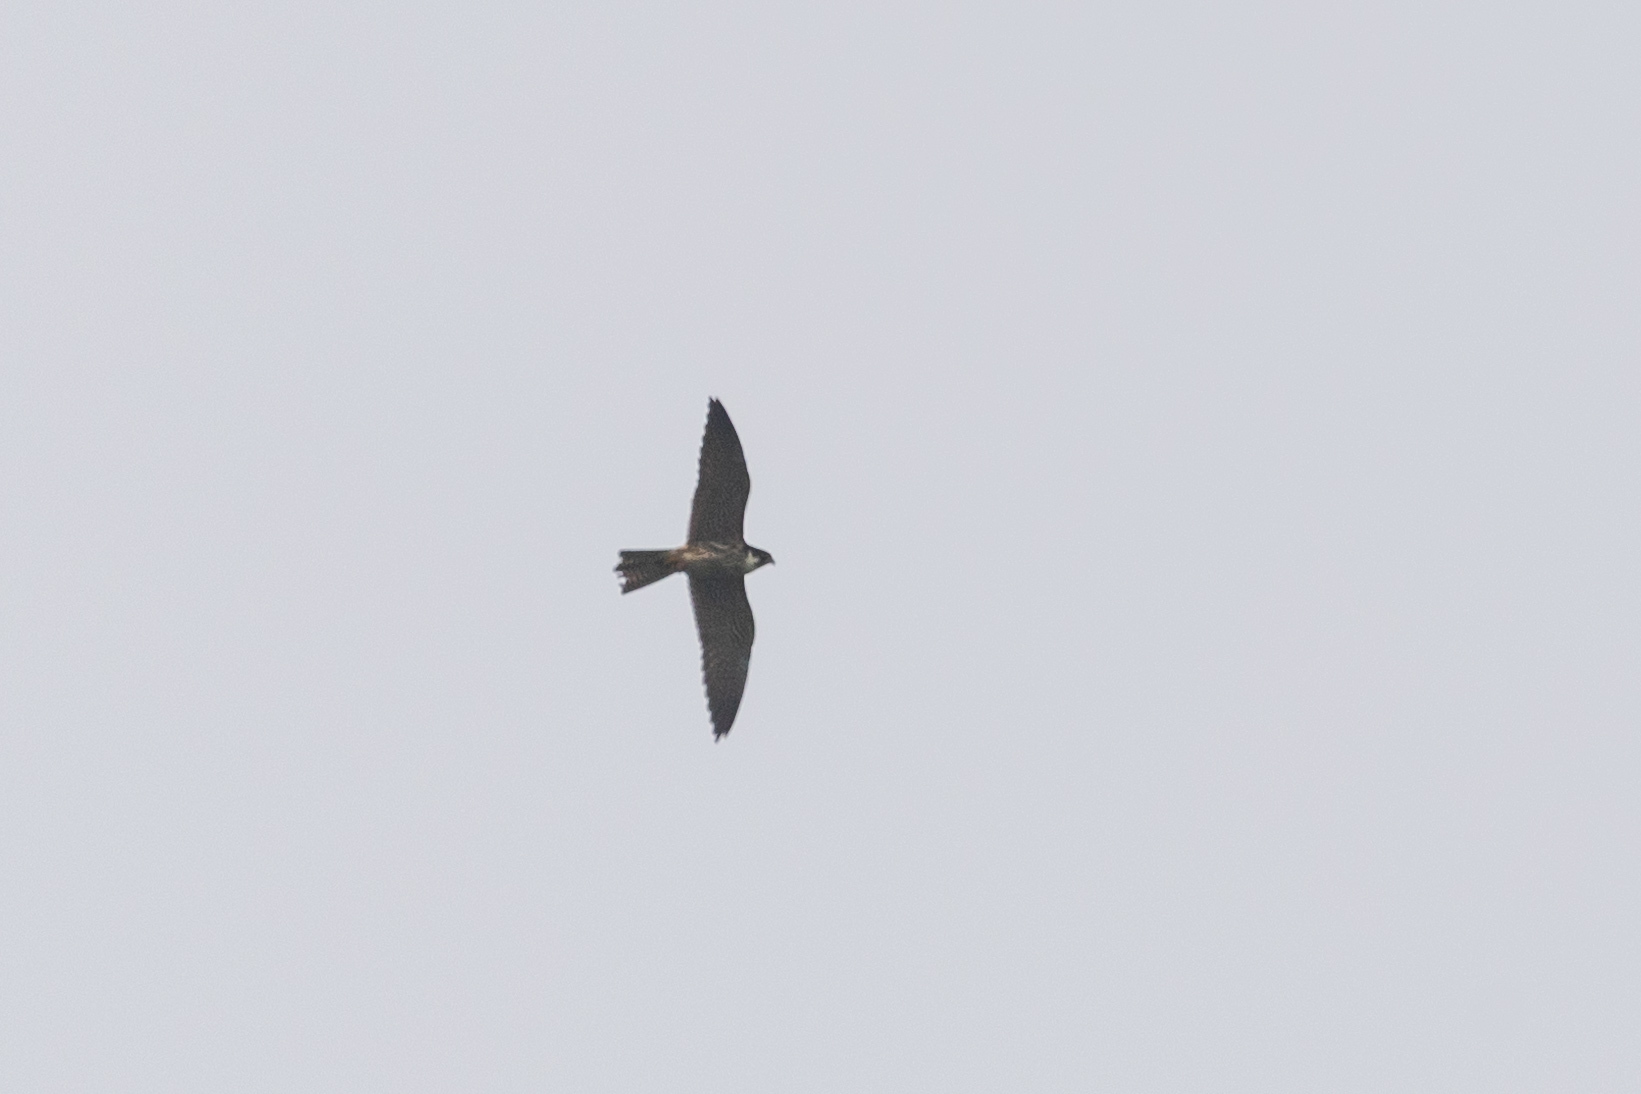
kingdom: Animalia
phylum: Chordata
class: Aves
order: Falconiformes
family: Falconidae
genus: Falco
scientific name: Falco subbuteo
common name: Eurasian hobby
